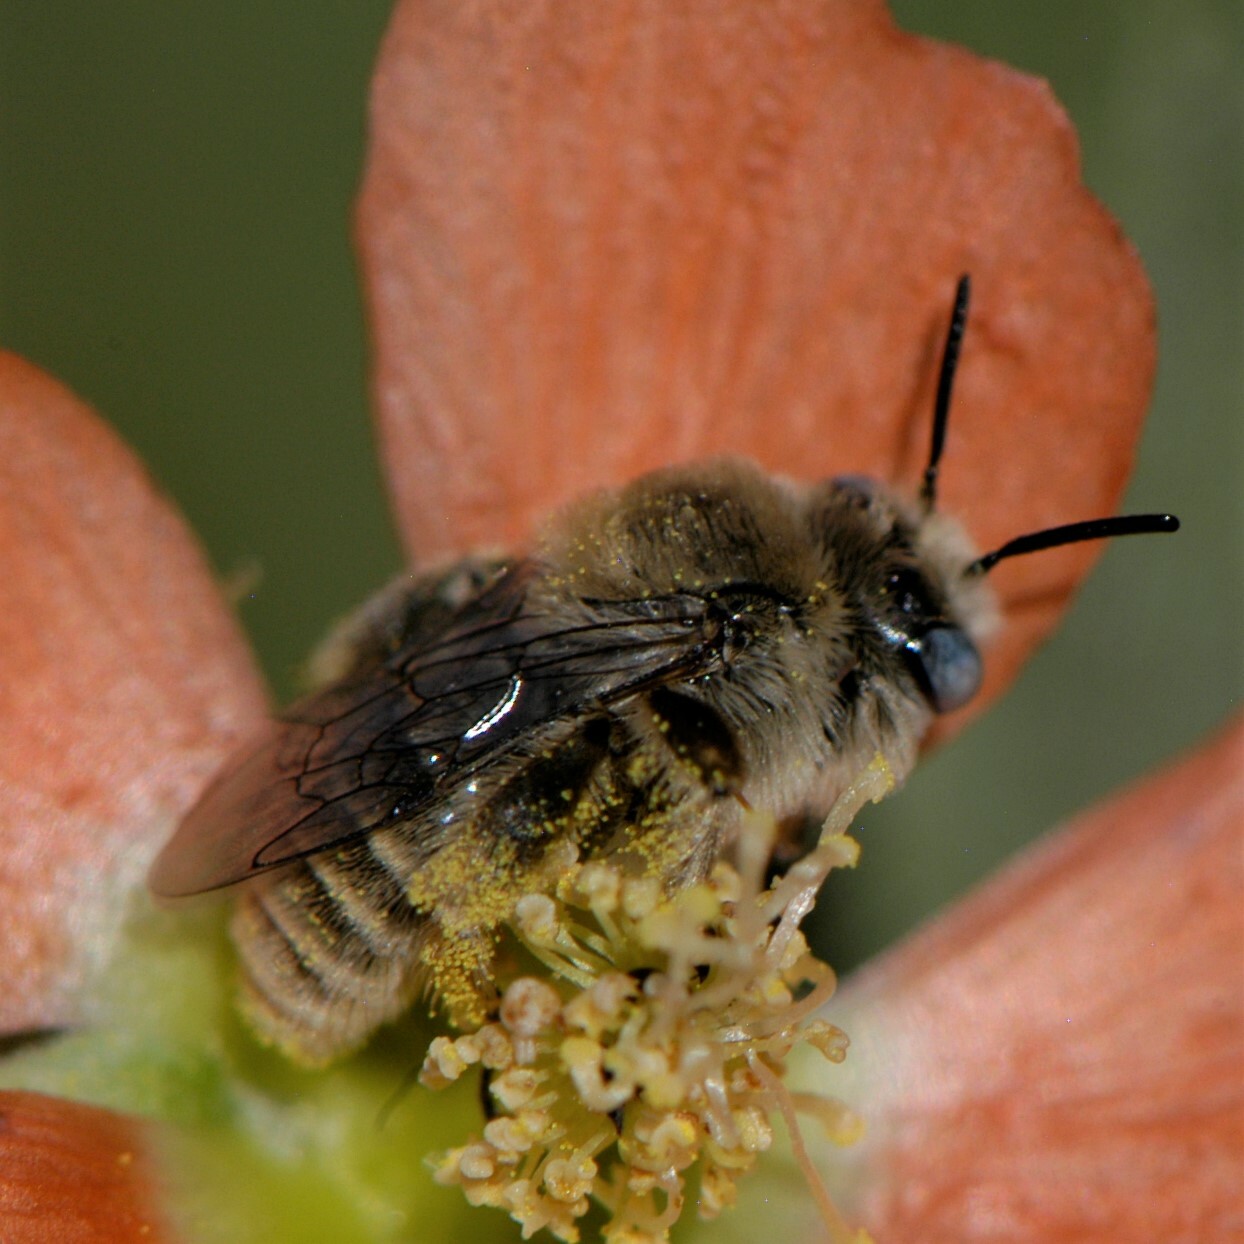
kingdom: Animalia
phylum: Arthropoda
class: Insecta
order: Hymenoptera
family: Apidae
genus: Diadasia
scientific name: Diadasia
